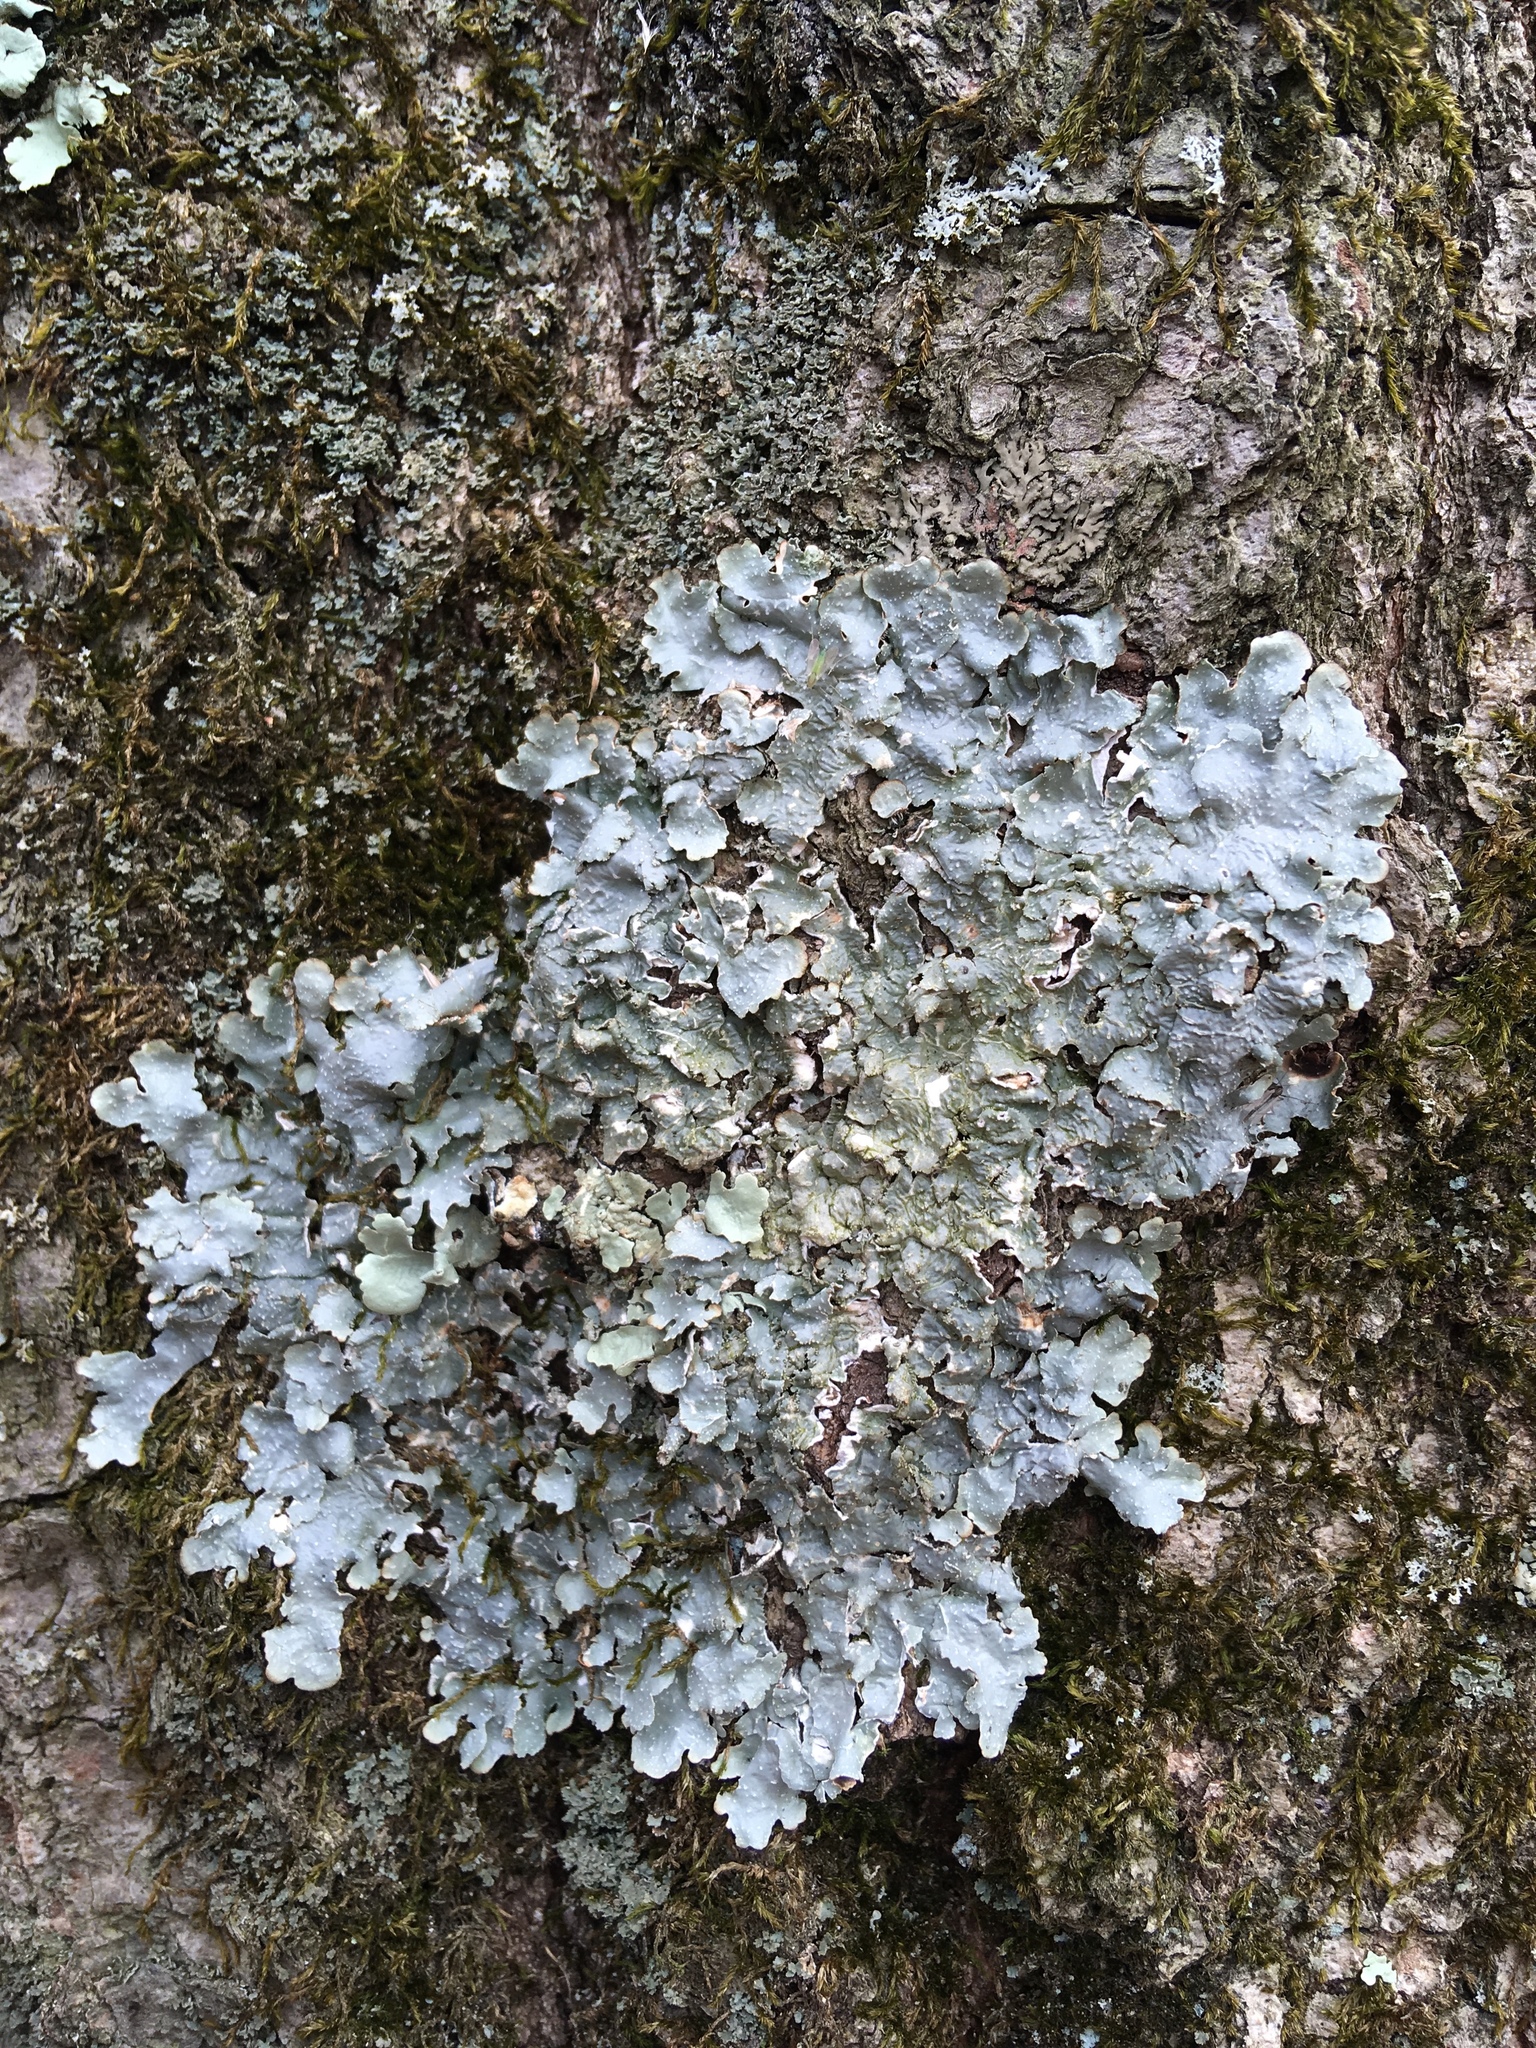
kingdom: Fungi
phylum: Ascomycota
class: Lecanoromycetes
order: Lecanorales
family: Parmeliaceae
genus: Punctelia
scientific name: Punctelia rudecta
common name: Rough speckled shield lichen
